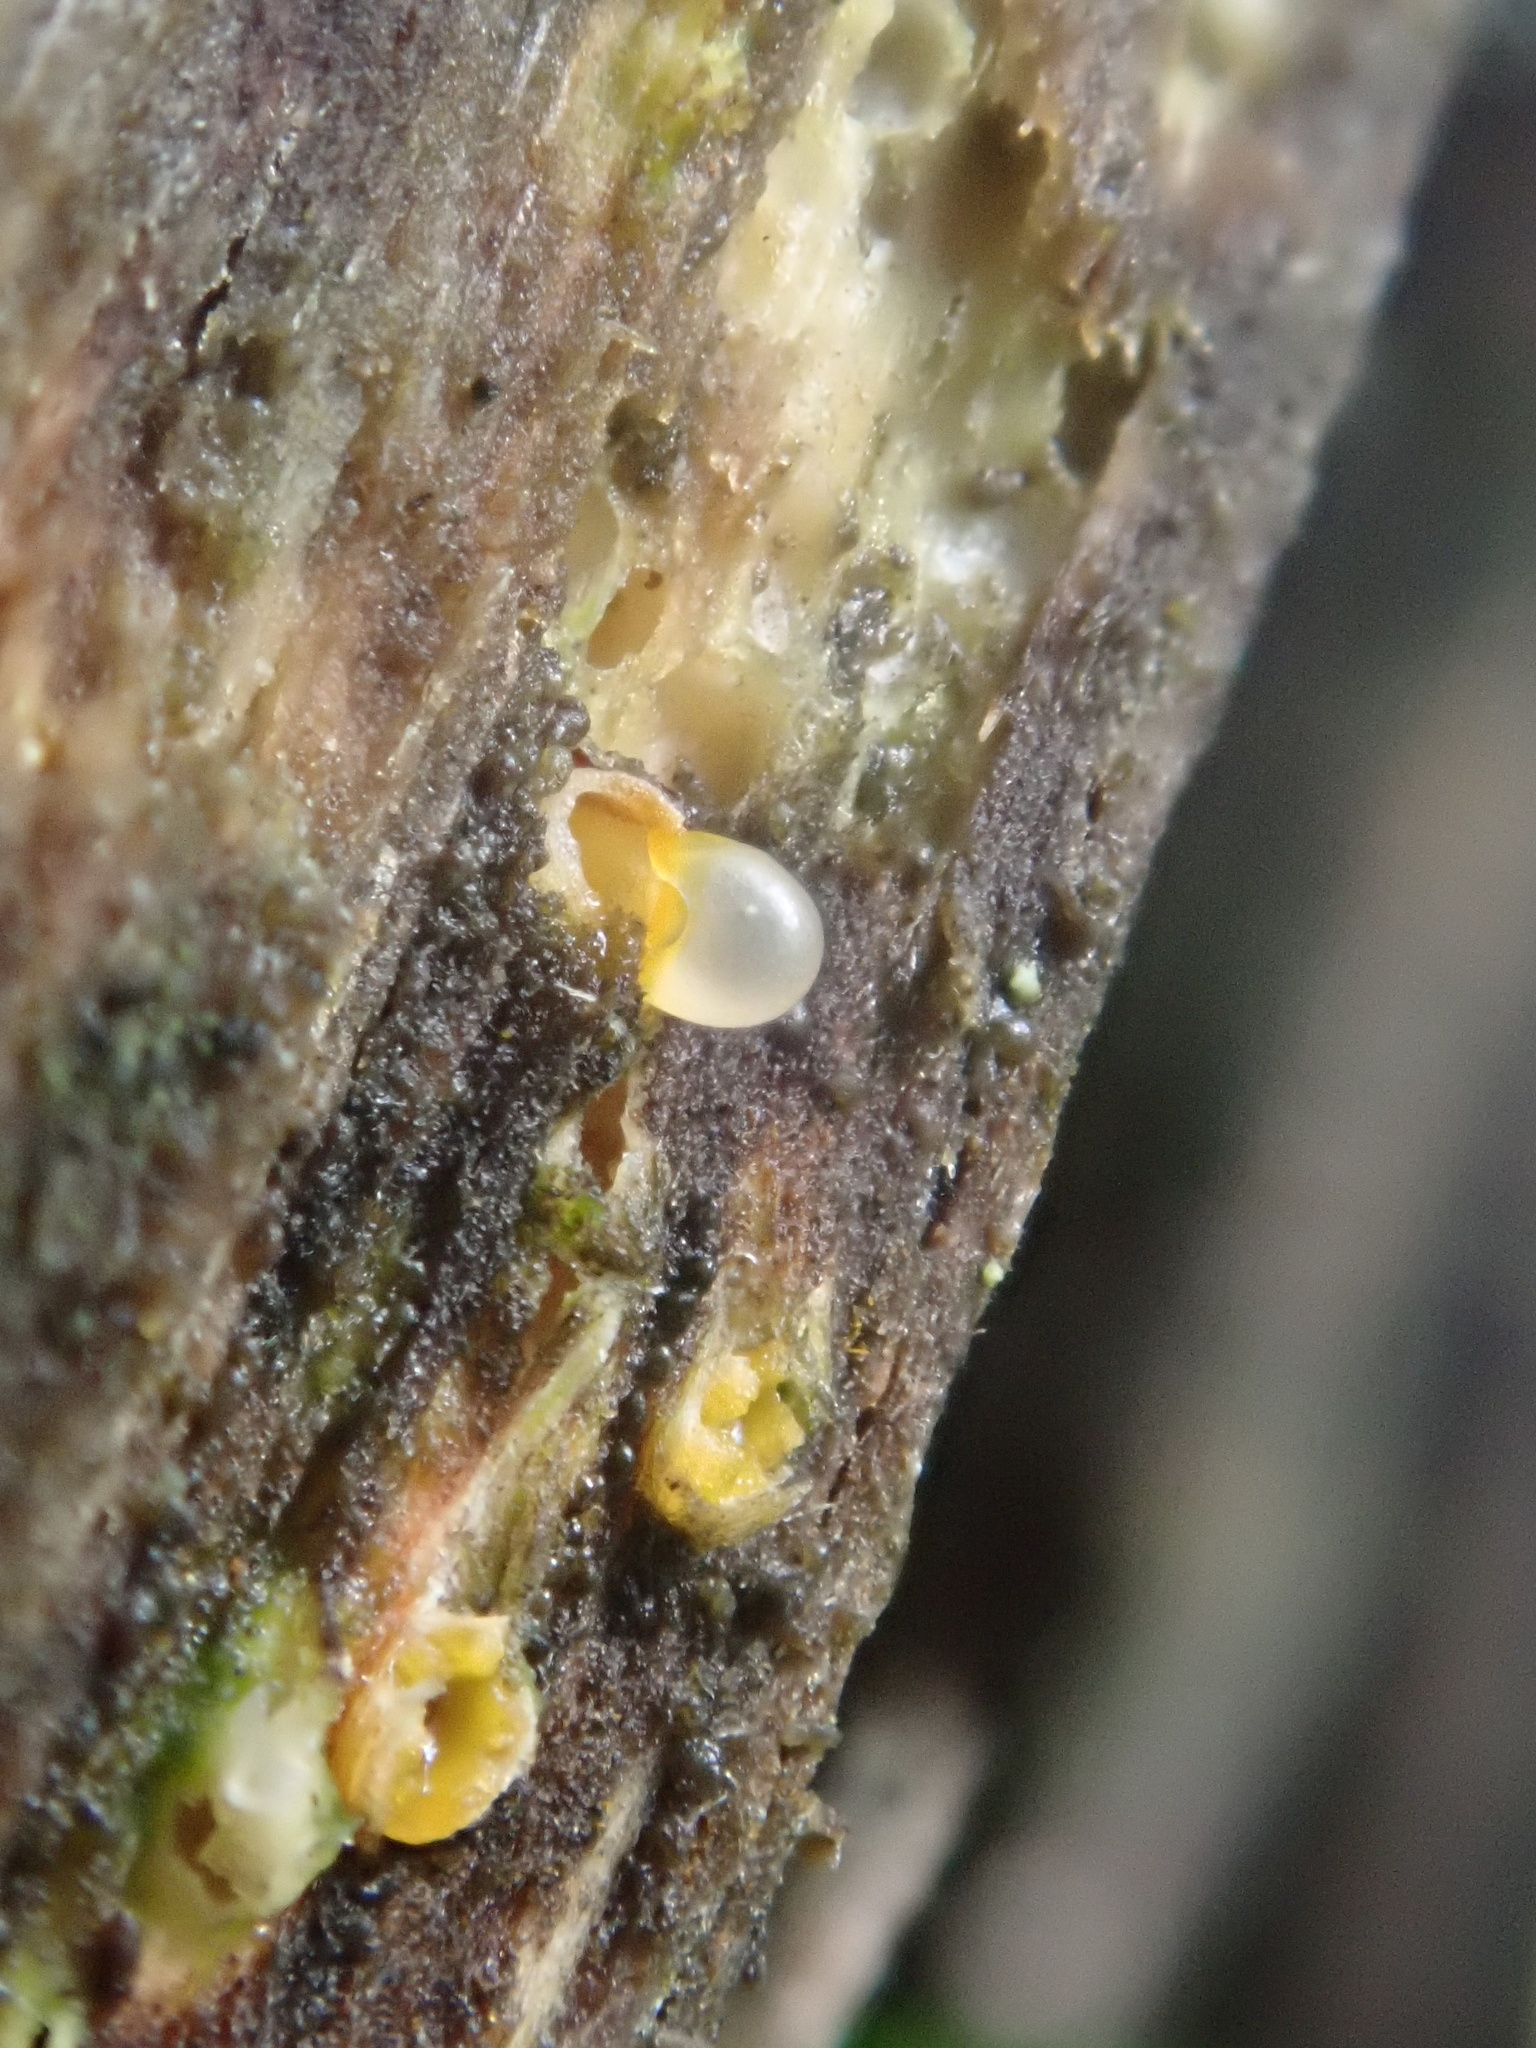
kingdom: Fungi
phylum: Basidiomycota
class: Agaricomycetes
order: Geastrales
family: Geastraceae
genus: Sphaerobolus
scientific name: Sphaerobolus stellatus
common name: Cannon fungus
